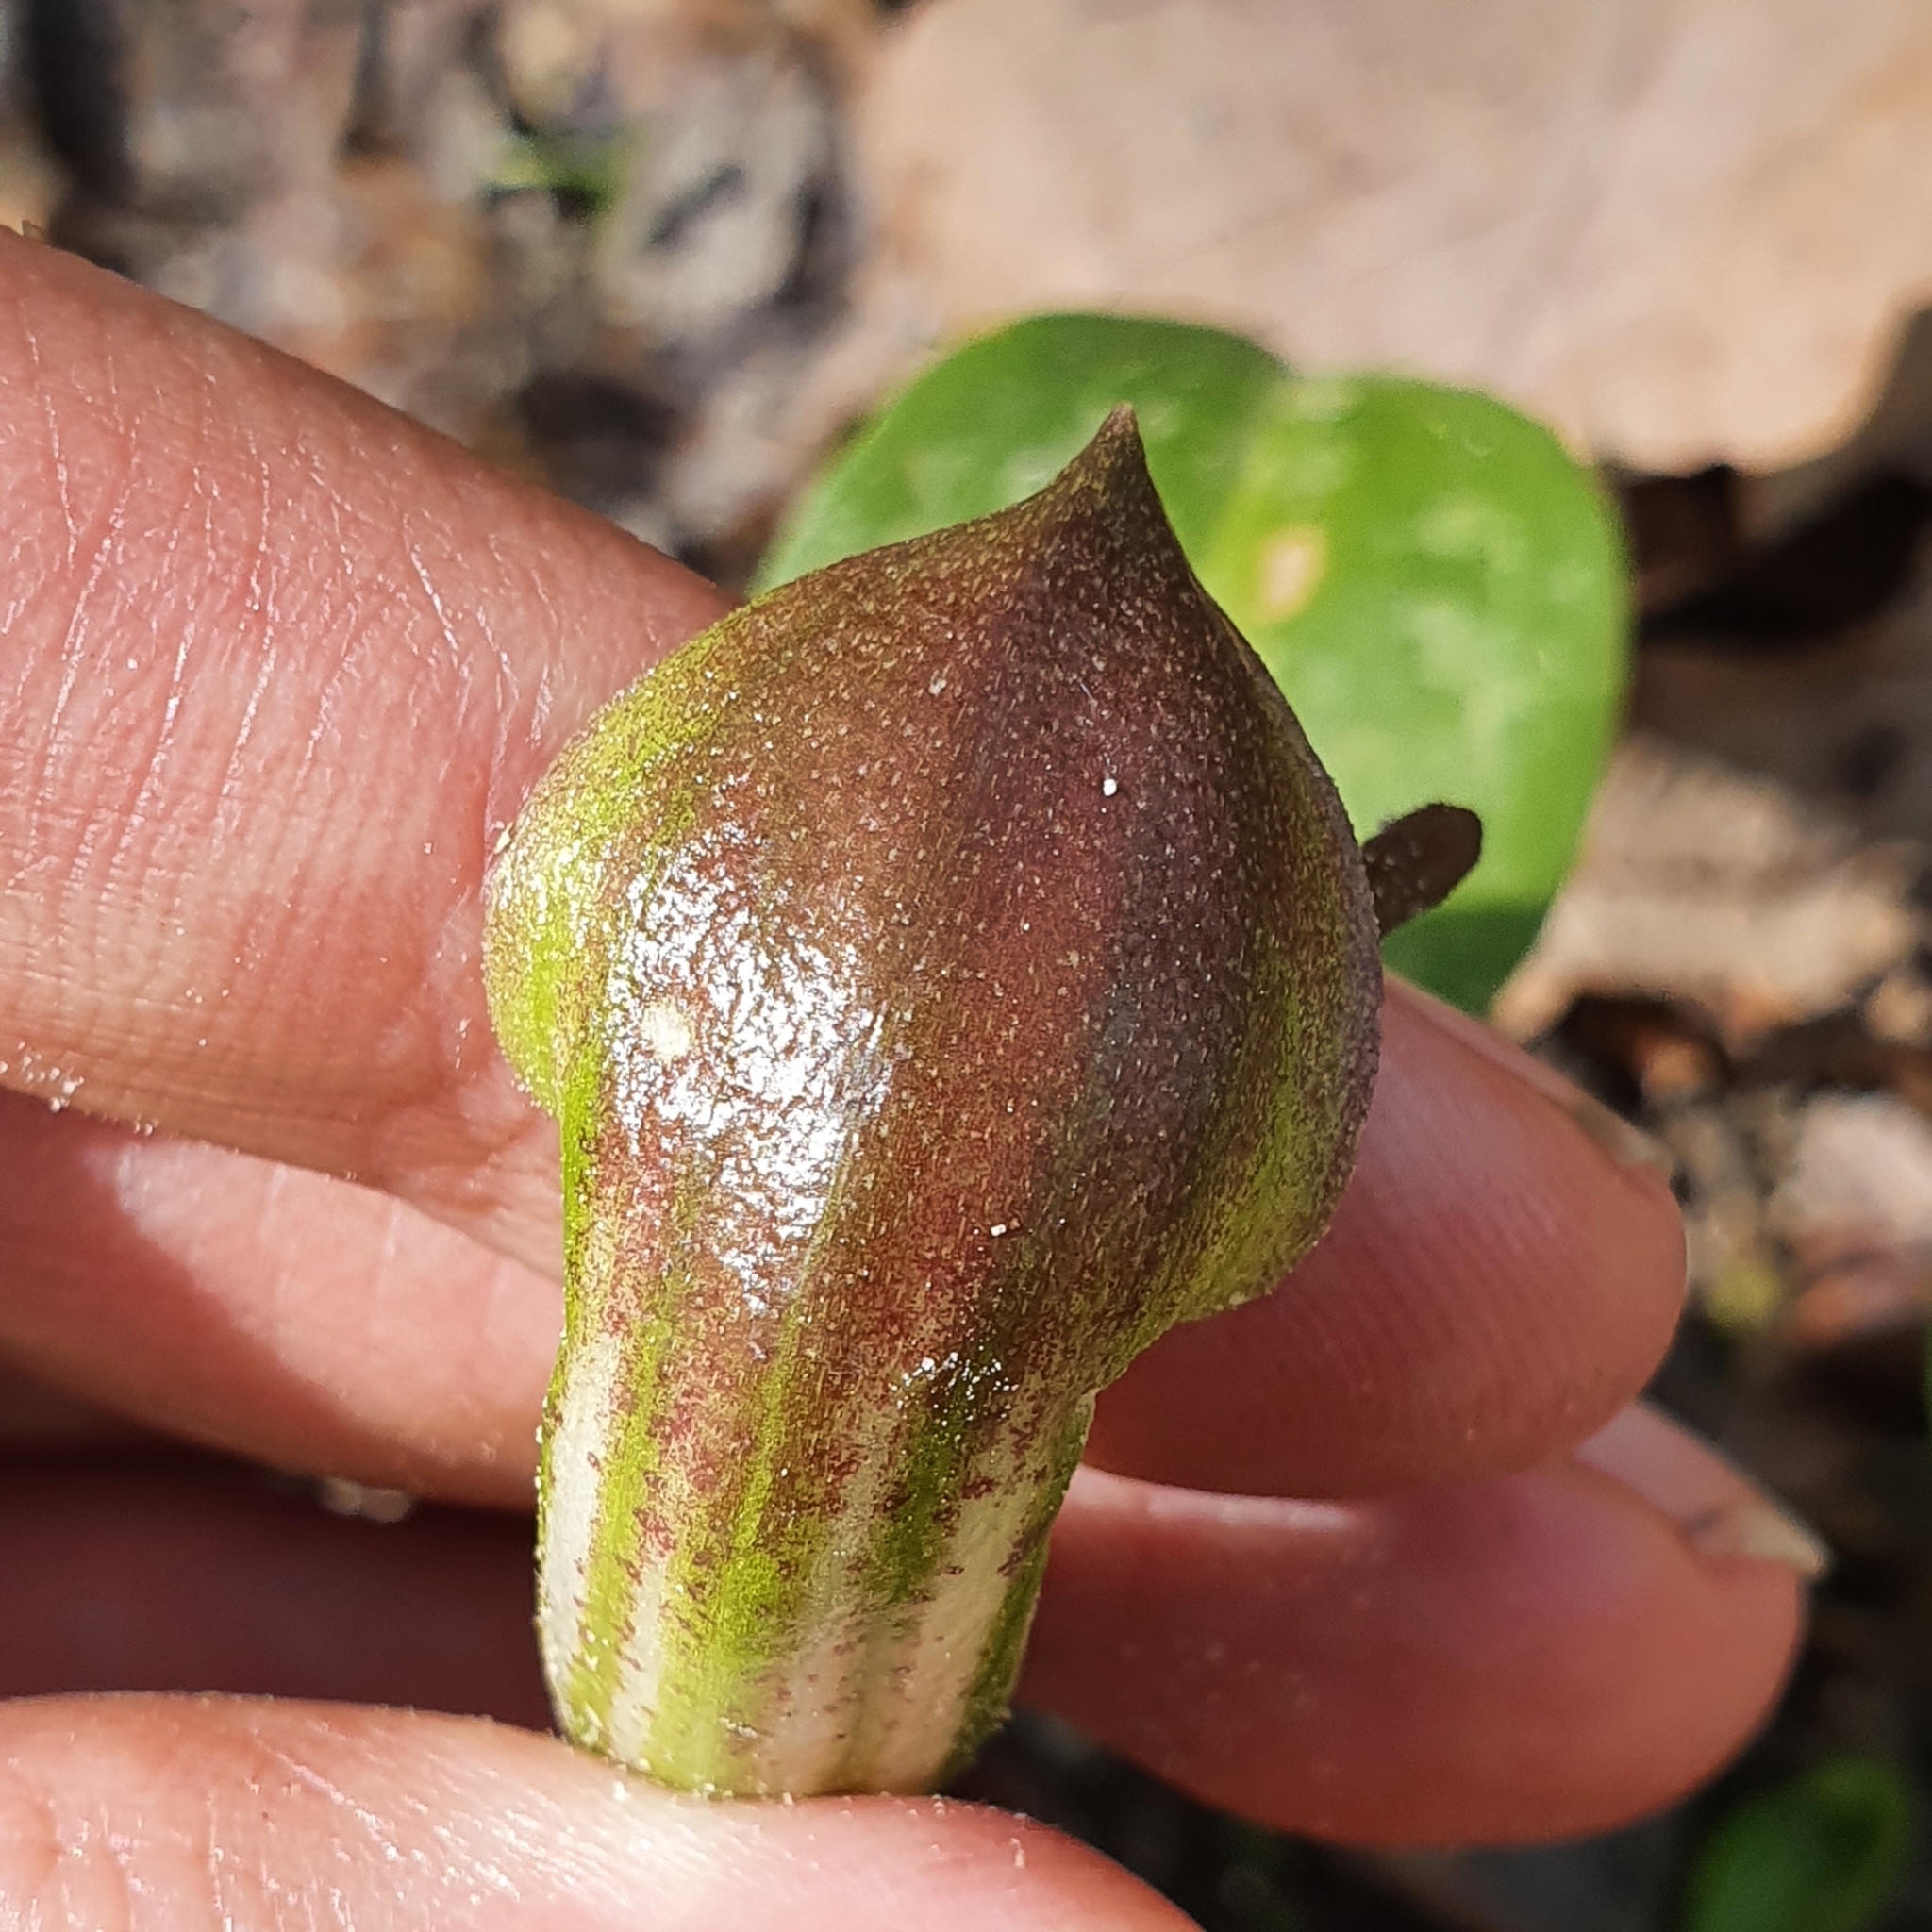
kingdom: Plantae
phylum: Tracheophyta
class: Liliopsida
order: Alismatales
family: Araceae
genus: Arisarum
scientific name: Arisarum vulgare
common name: Common arisarum
